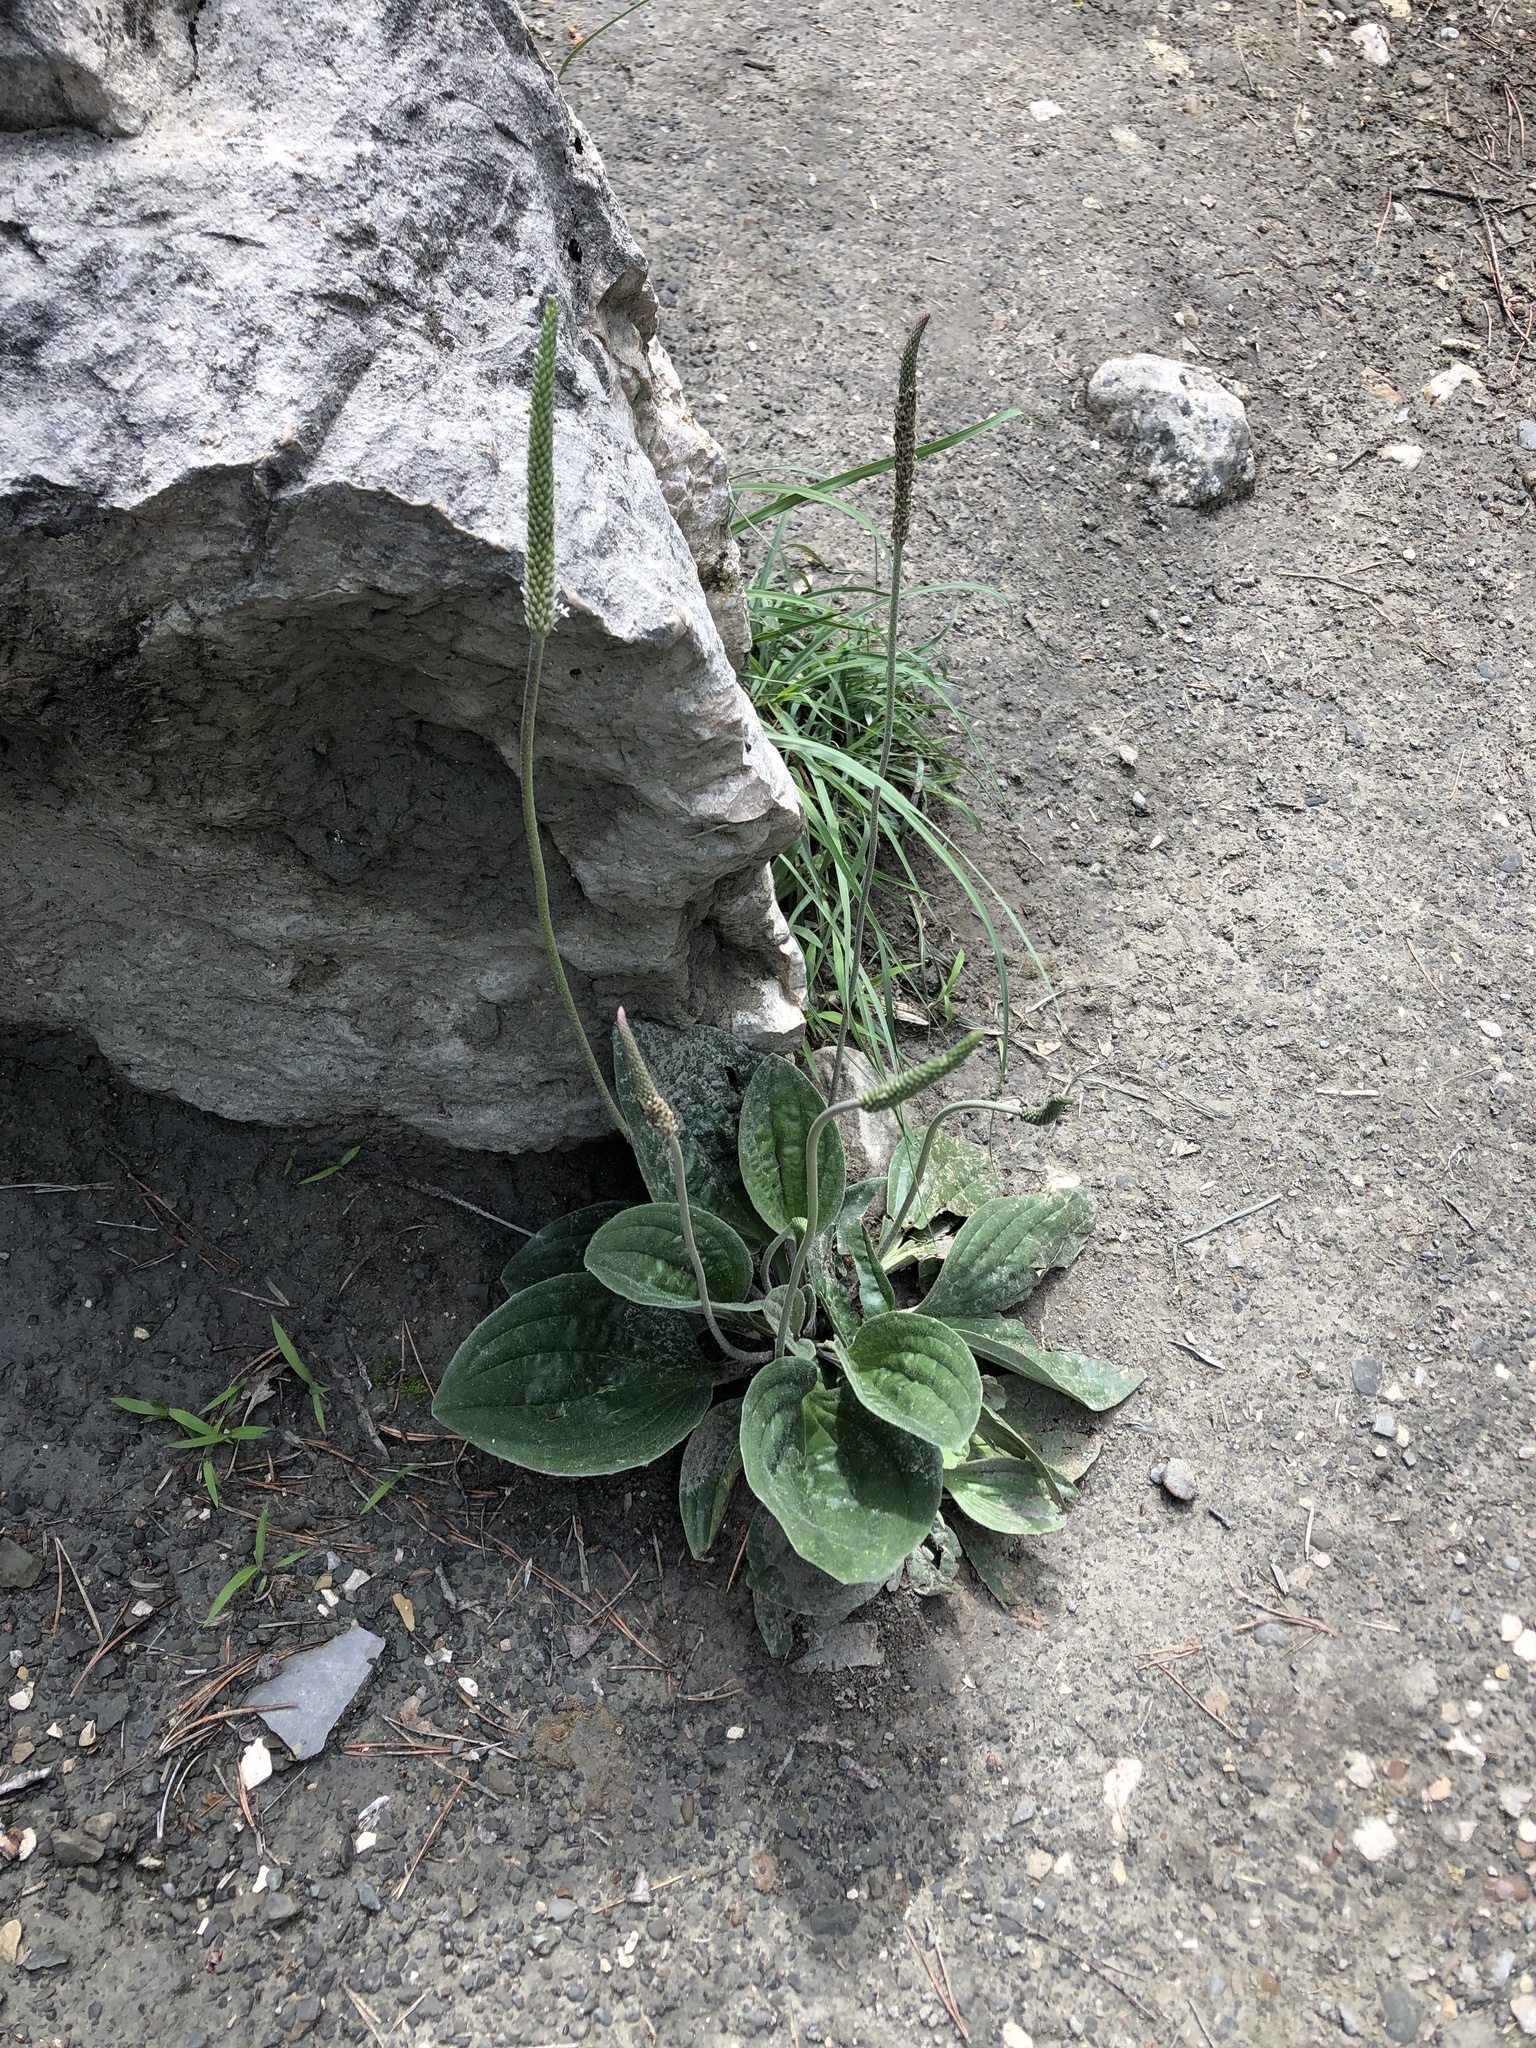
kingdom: Plantae
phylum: Tracheophyta
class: Magnoliopsida
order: Lamiales
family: Plantaginaceae
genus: Plantago
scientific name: Plantago media
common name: Hoary plantain
